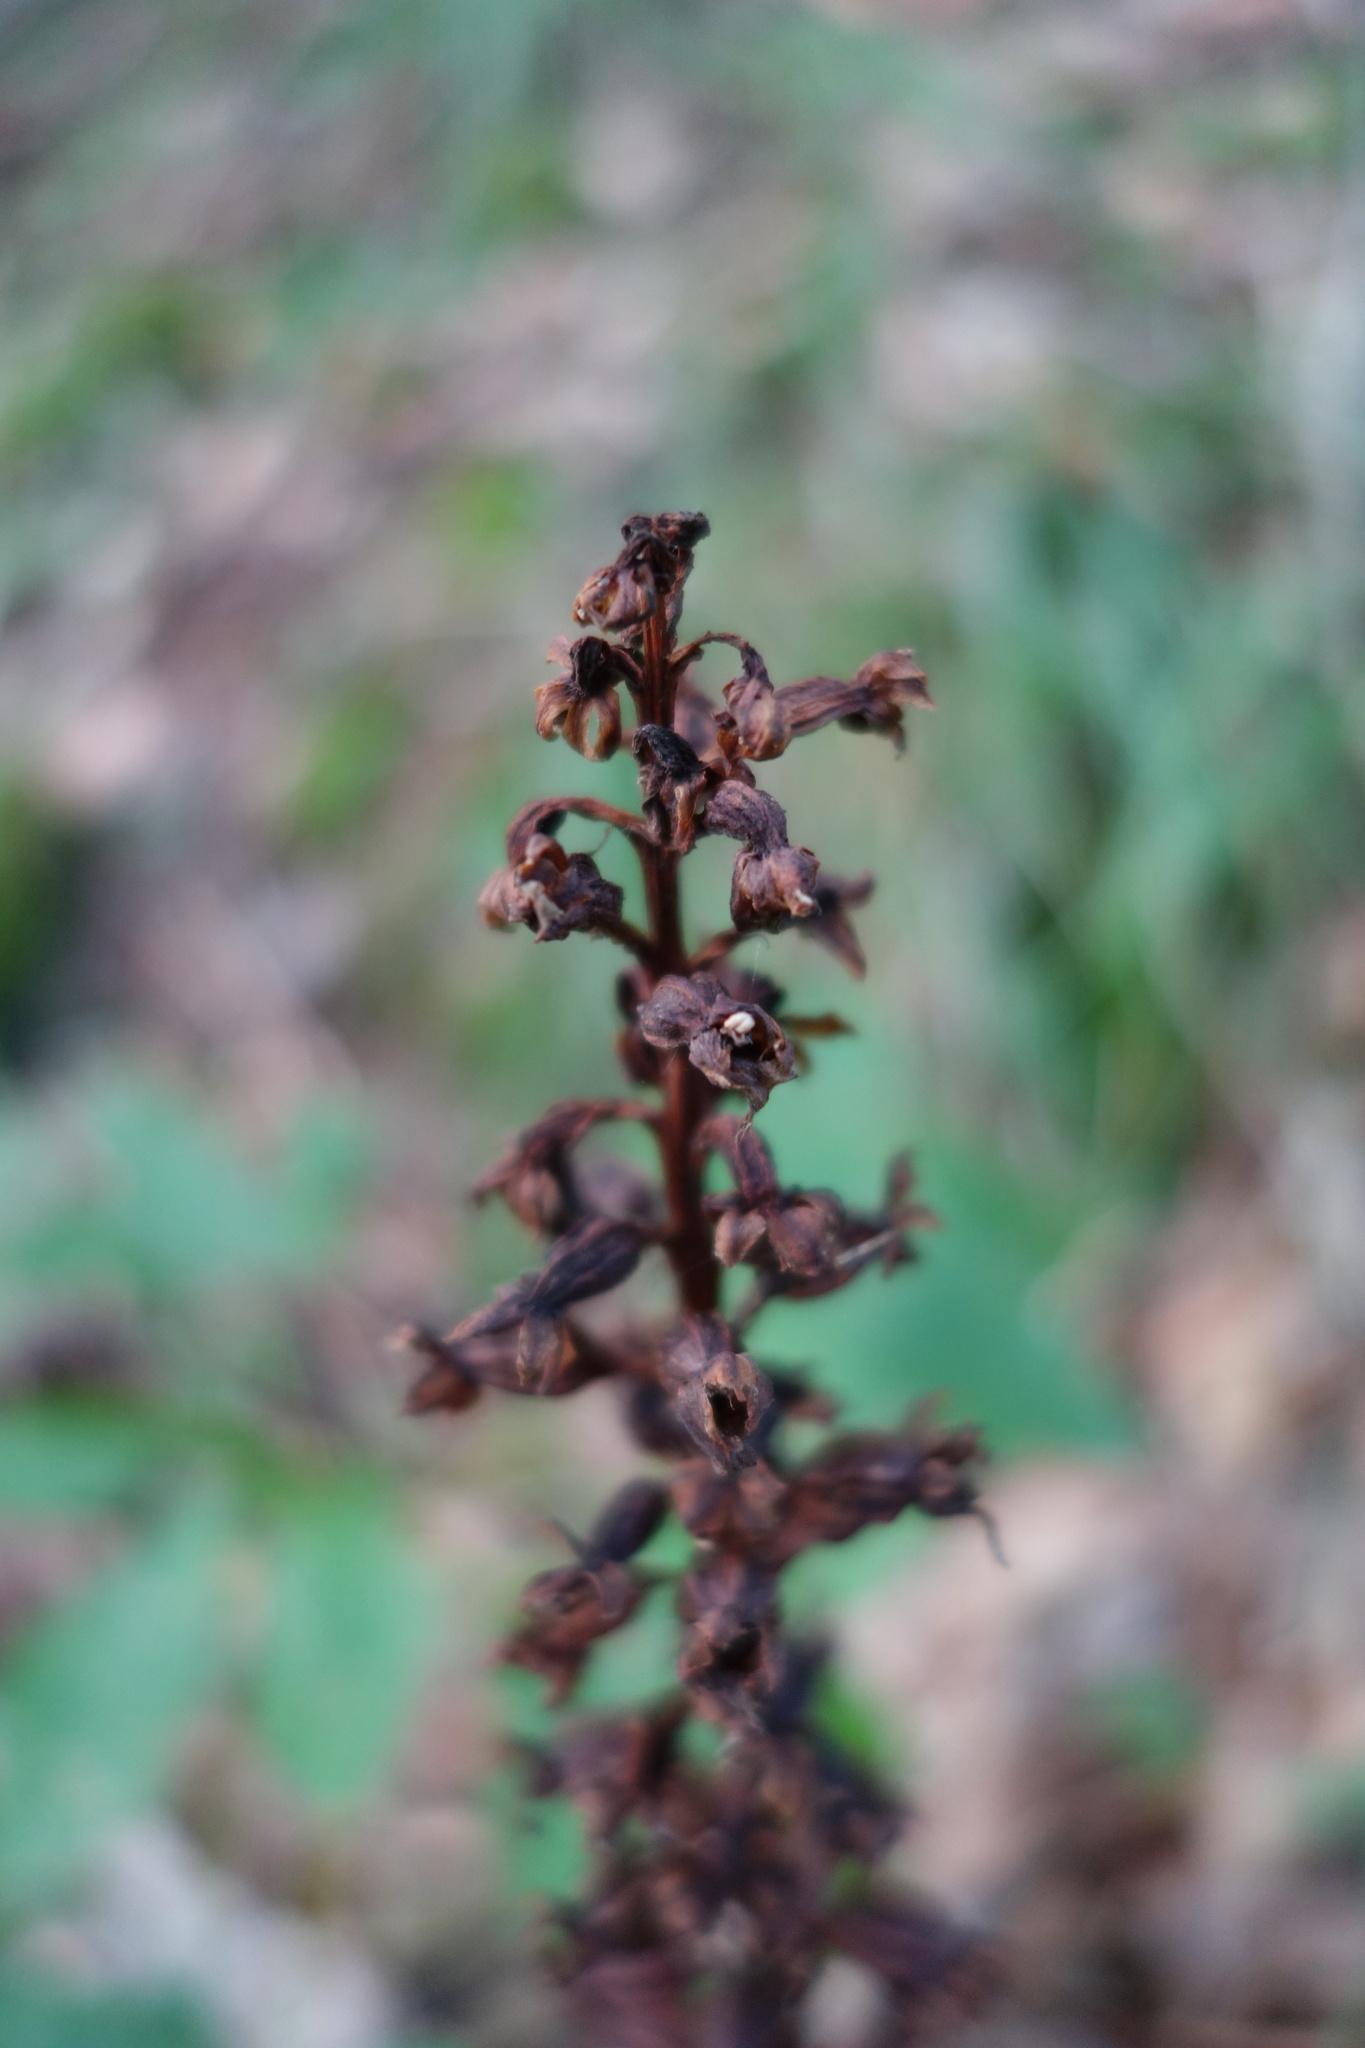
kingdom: Plantae
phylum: Tracheophyta
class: Liliopsida
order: Asparagales
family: Orchidaceae
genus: Neottia
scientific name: Neottia nidus-avis
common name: Bird's-nest orchid
